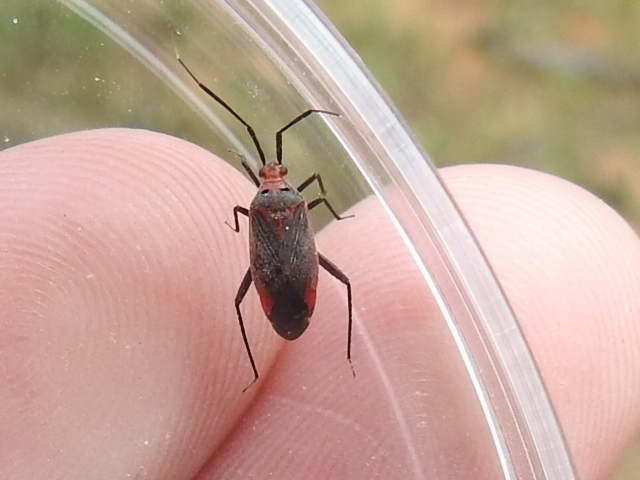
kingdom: Animalia
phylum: Arthropoda
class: Insecta
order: Hemiptera
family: Miridae
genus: Taedia
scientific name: Taedia johnstoni
